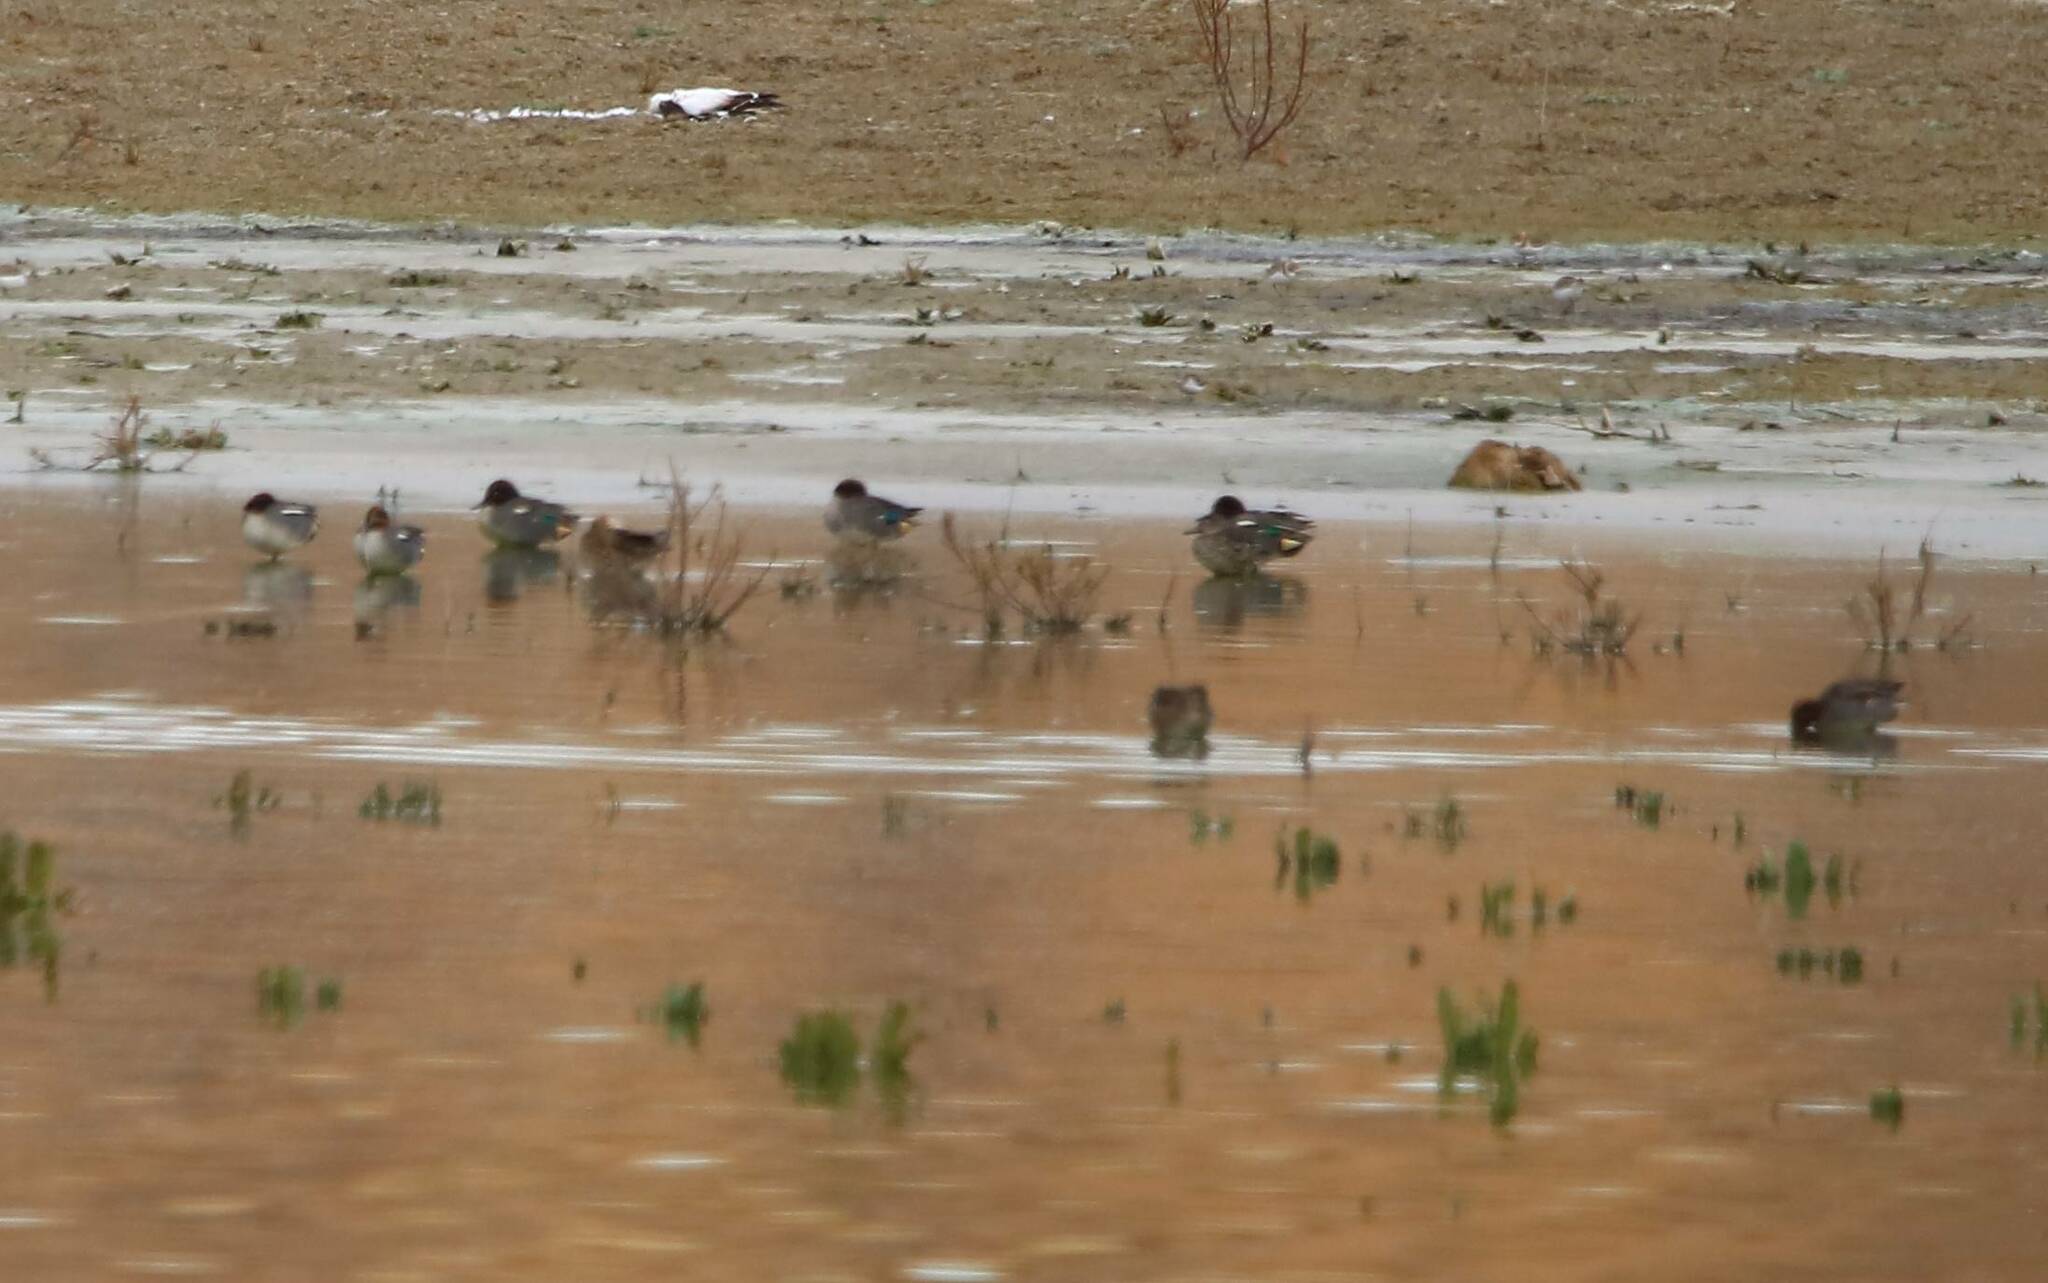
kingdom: Animalia
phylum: Chordata
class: Aves
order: Anseriformes
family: Anatidae
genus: Anas
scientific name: Anas crecca
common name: Eurasian teal
